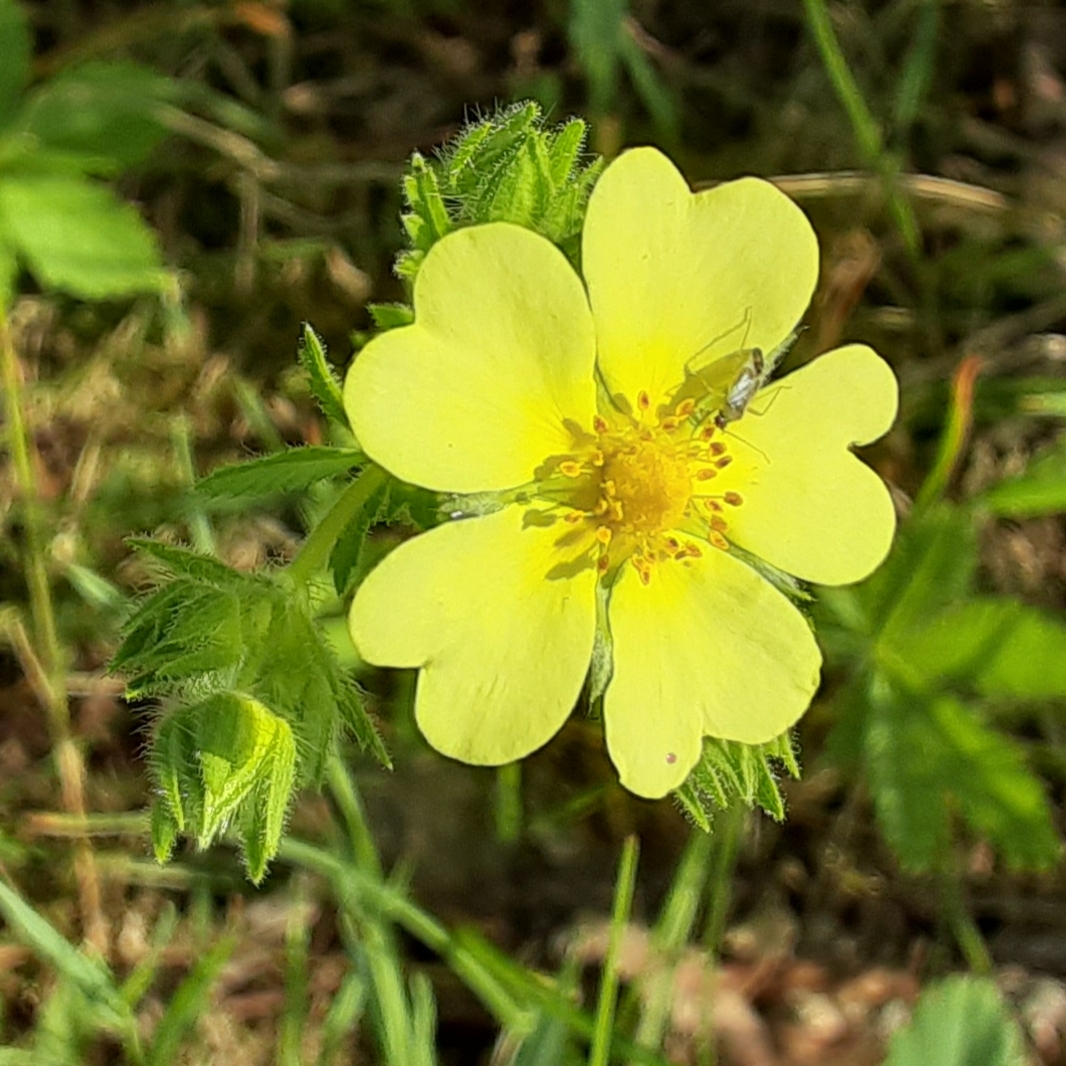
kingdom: Plantae
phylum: Tracheophyta
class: Magnoliopsida
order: Rosales
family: Rosaceae
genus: Potentilla
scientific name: Potentilla recta
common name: Sulphur cinquefoil
